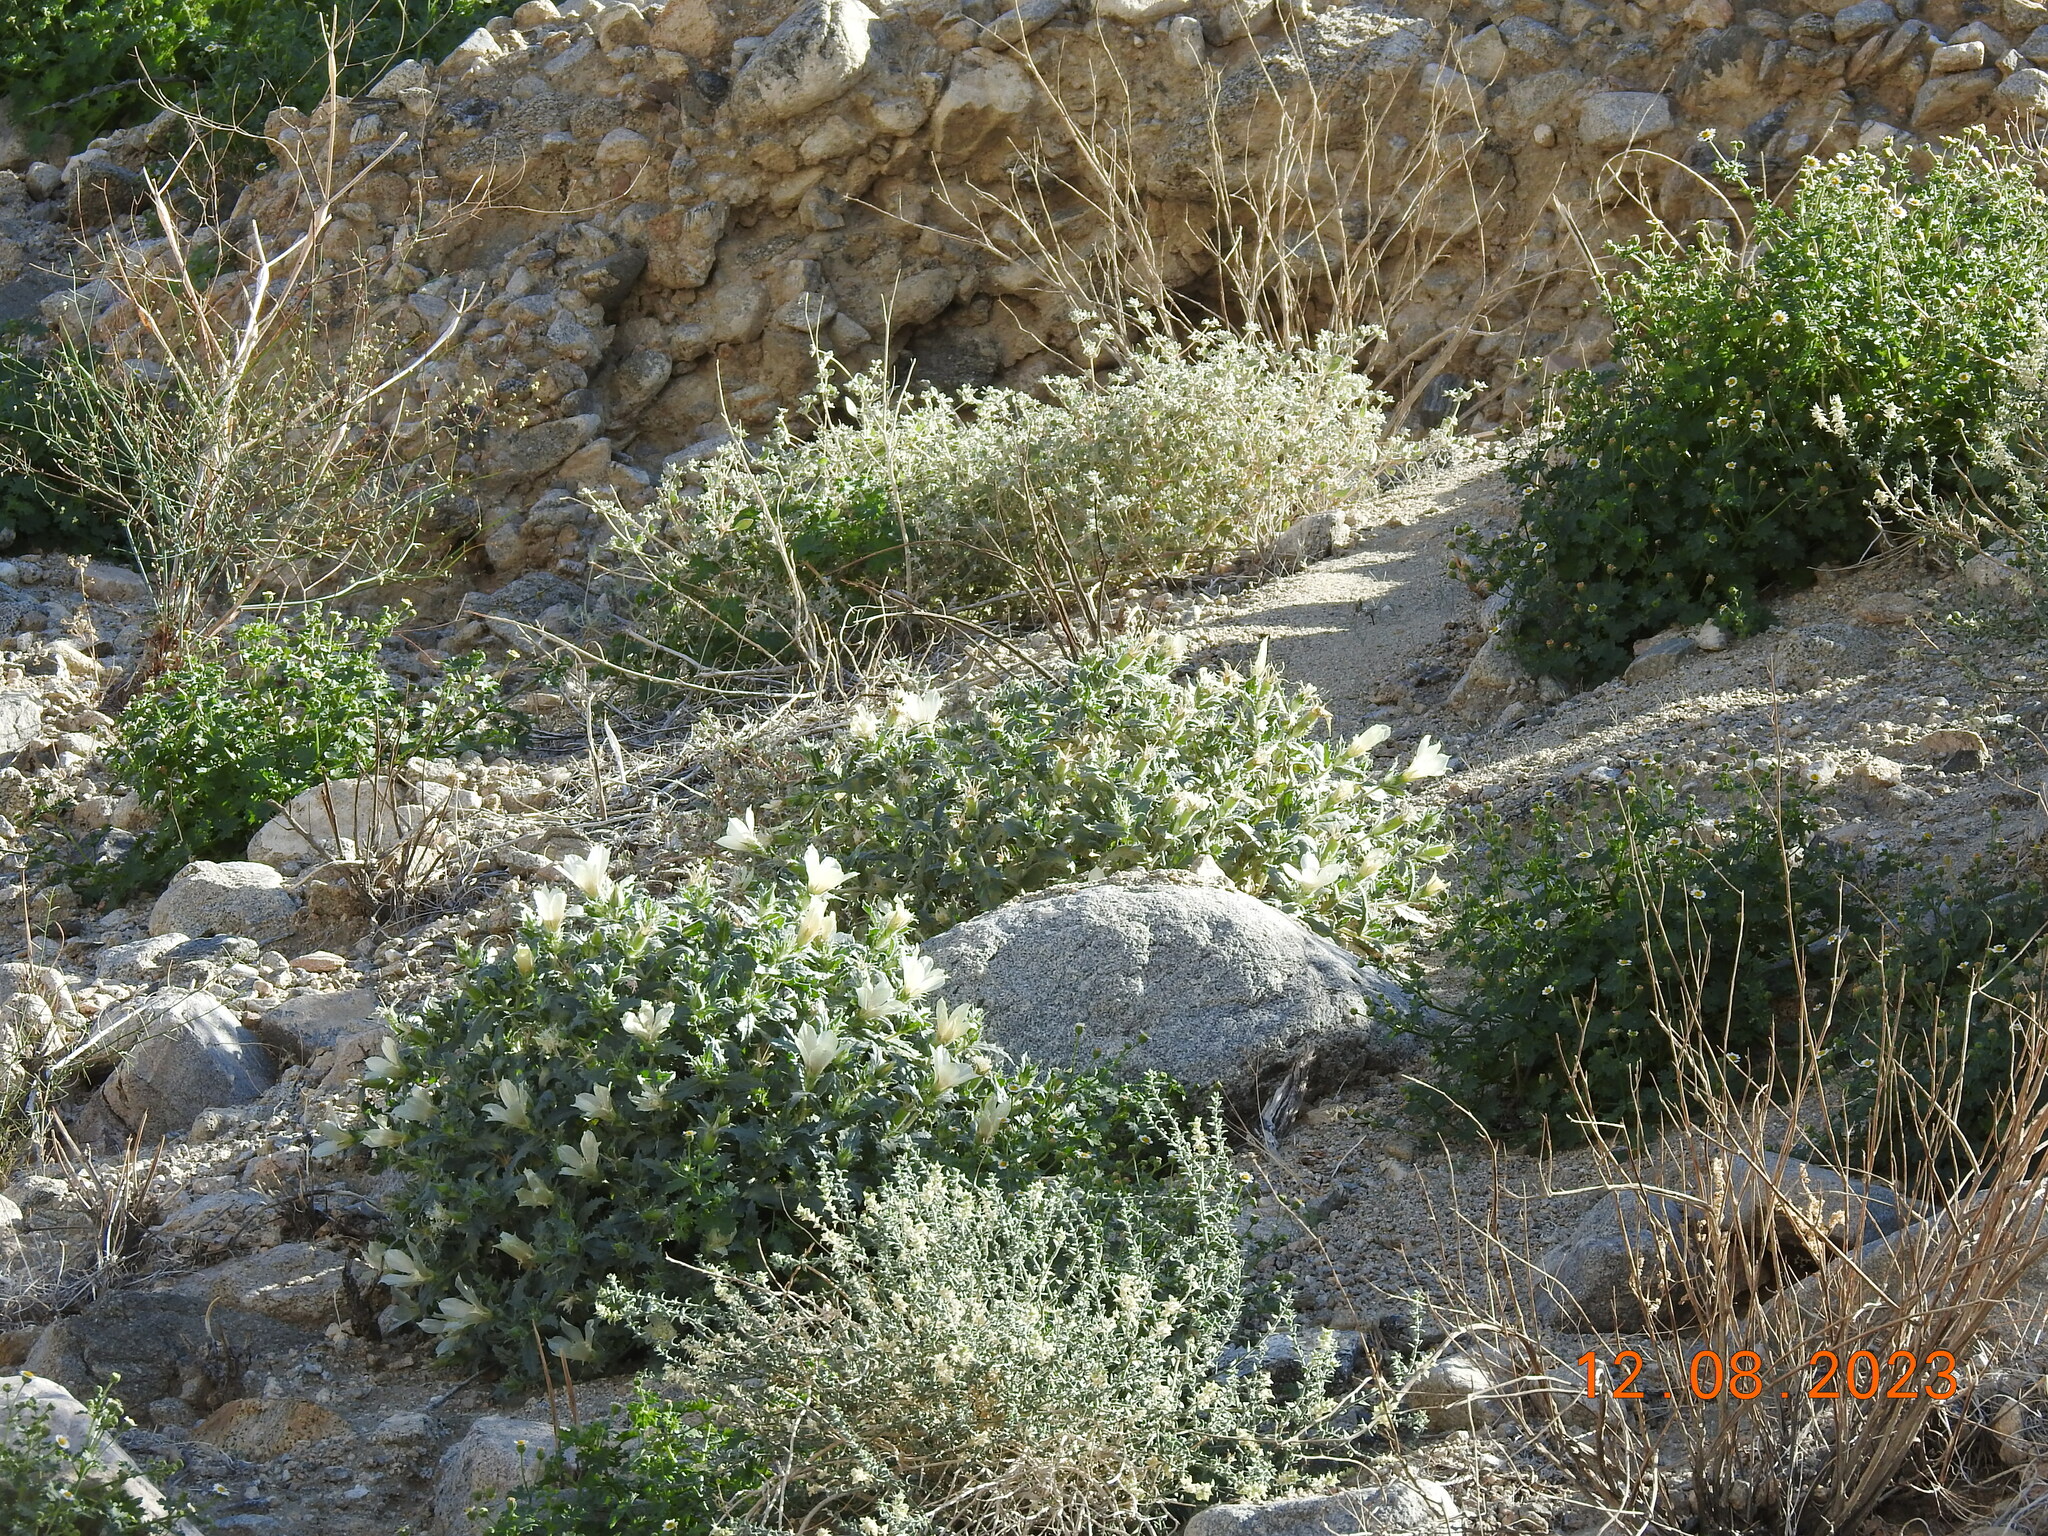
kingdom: Plantae
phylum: Tracheophyta
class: Magnoliopsida
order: Cornales
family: Loasaceae
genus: Mentzelia
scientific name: Mentzelia involucrata
